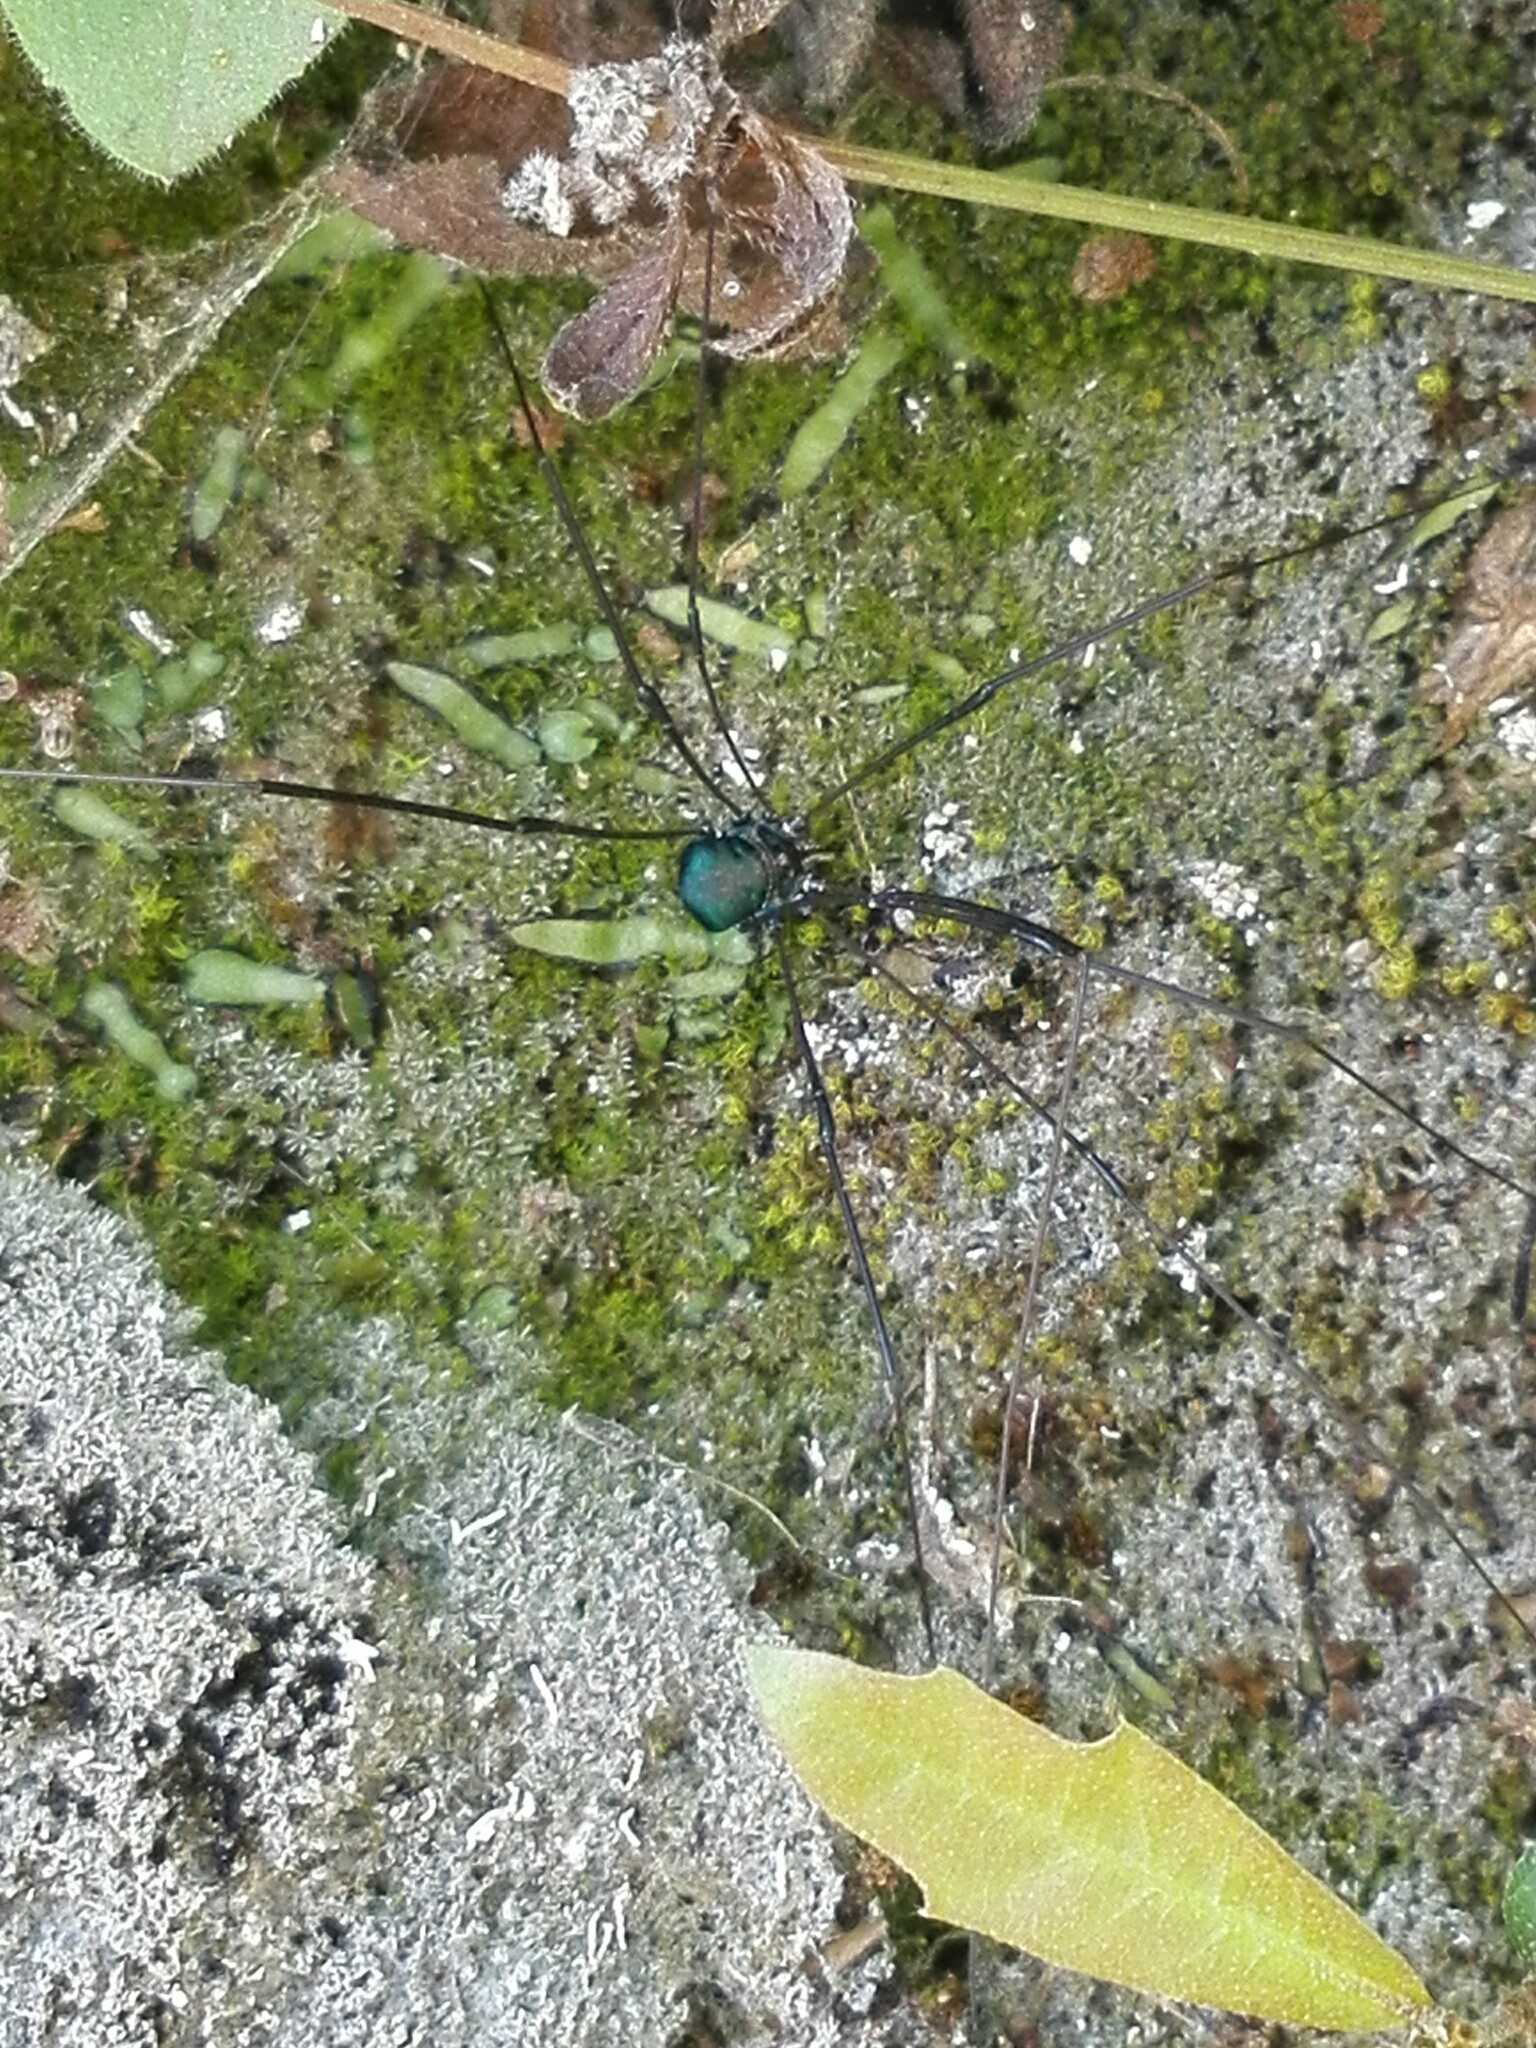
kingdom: Animalia
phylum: Arthropoda
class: Arachnida
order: Opiliones
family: Sclerosomatidae
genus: Leiobunum
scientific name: Leiobunum viridorsum
